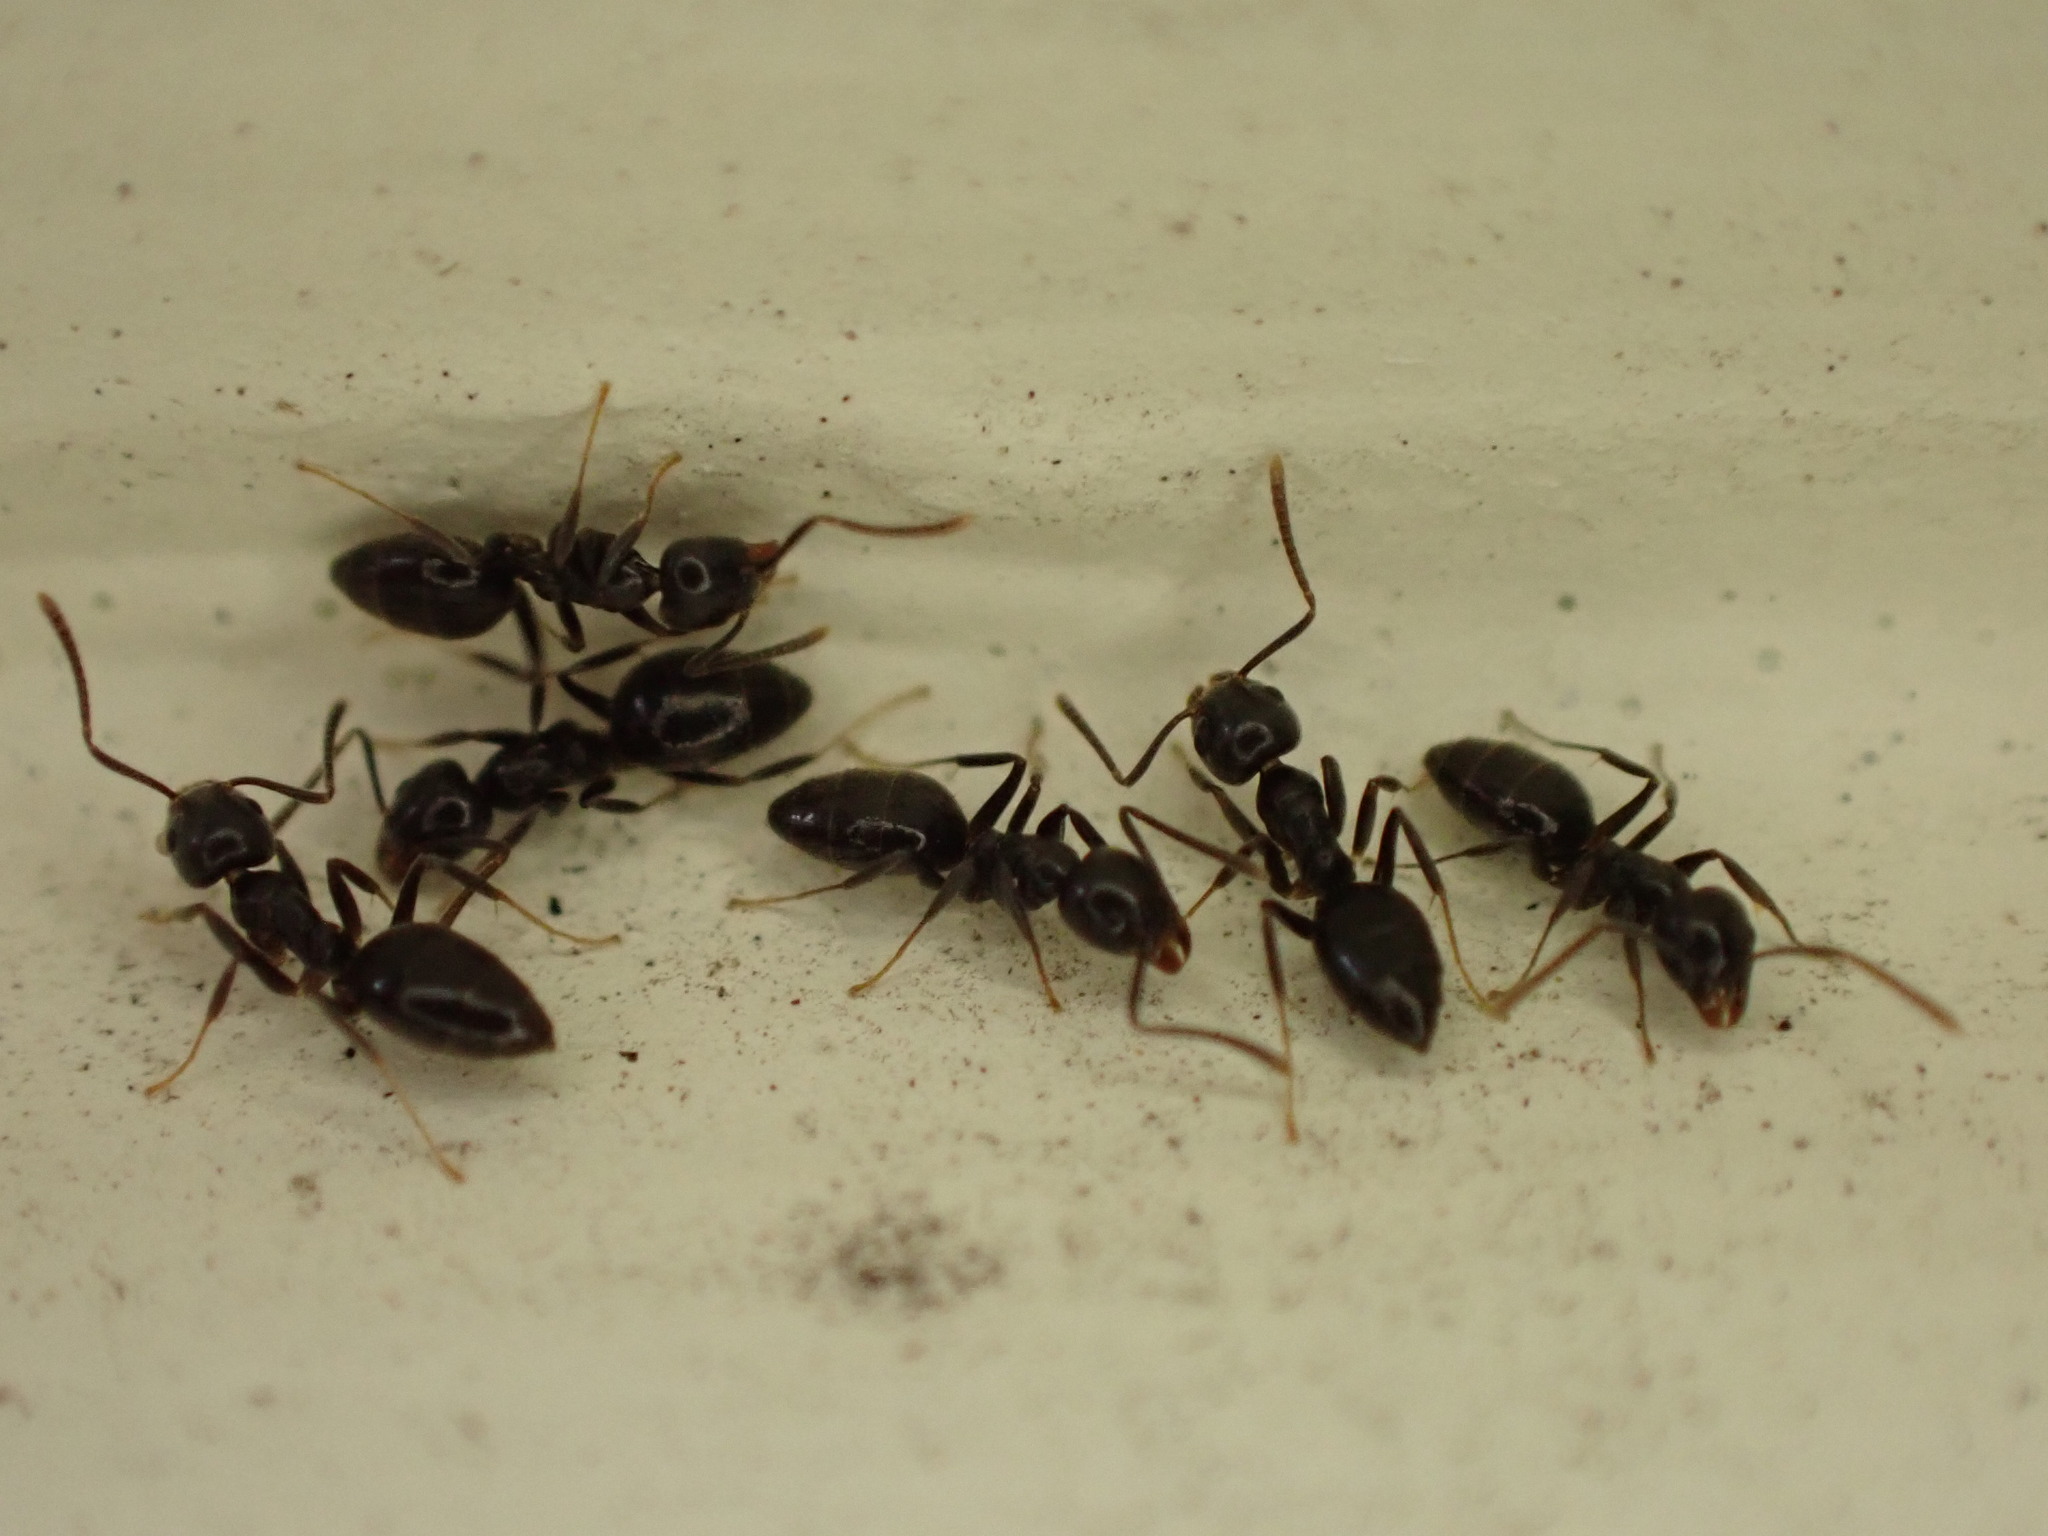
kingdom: Animalia
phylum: Arthropoda
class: Insecta
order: Hymenoptera
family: Formicidae
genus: Technomyrmex
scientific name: Technomyrmex jocosus
